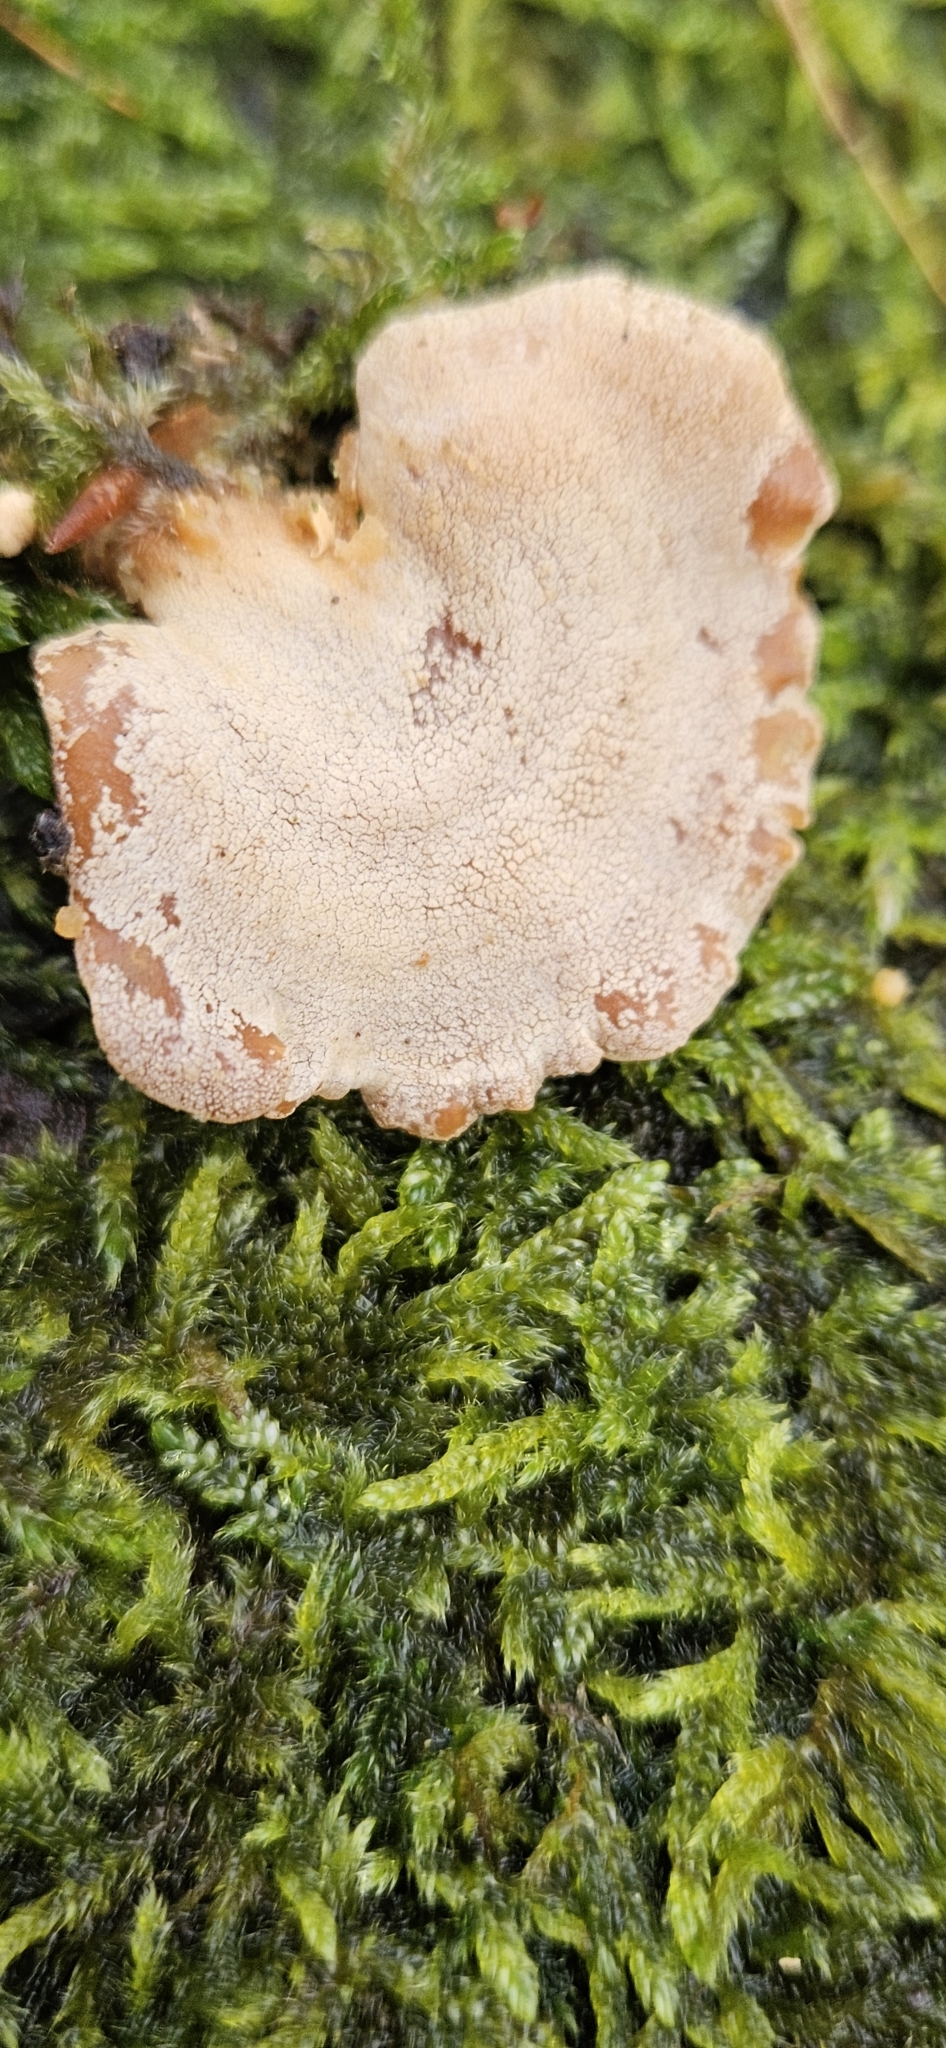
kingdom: Fungi
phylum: Basidiomycota
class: Agaricomycetes
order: Agaricales
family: Mycenaceae
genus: Panellus
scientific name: Panellus stipticus
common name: Bitter oysterling
